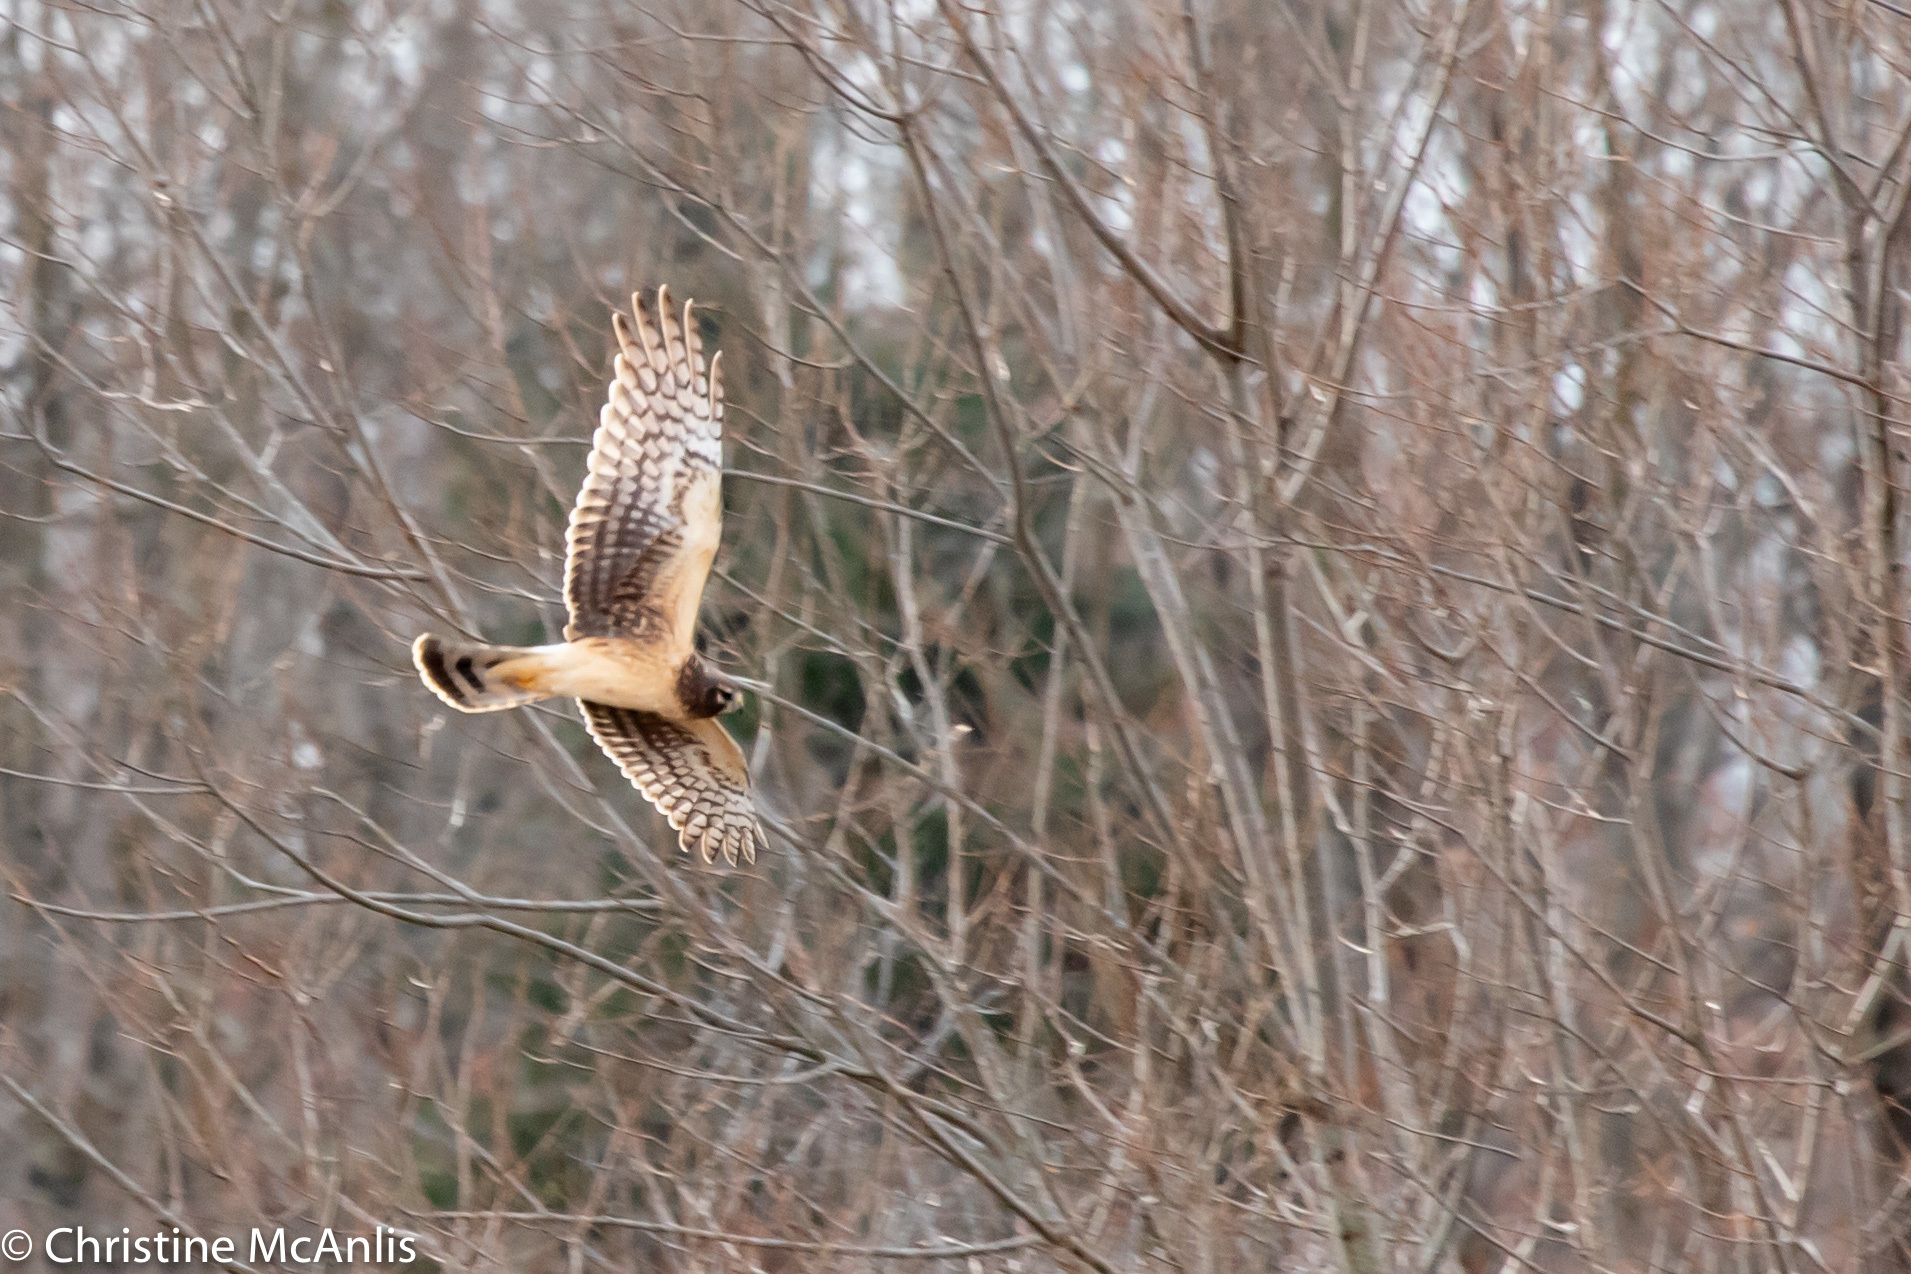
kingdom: Animalia
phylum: Chordata
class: Aves
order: Accipitriformes
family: Accipitridae
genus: Circus
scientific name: Circus cyaneus
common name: Hen harrier
